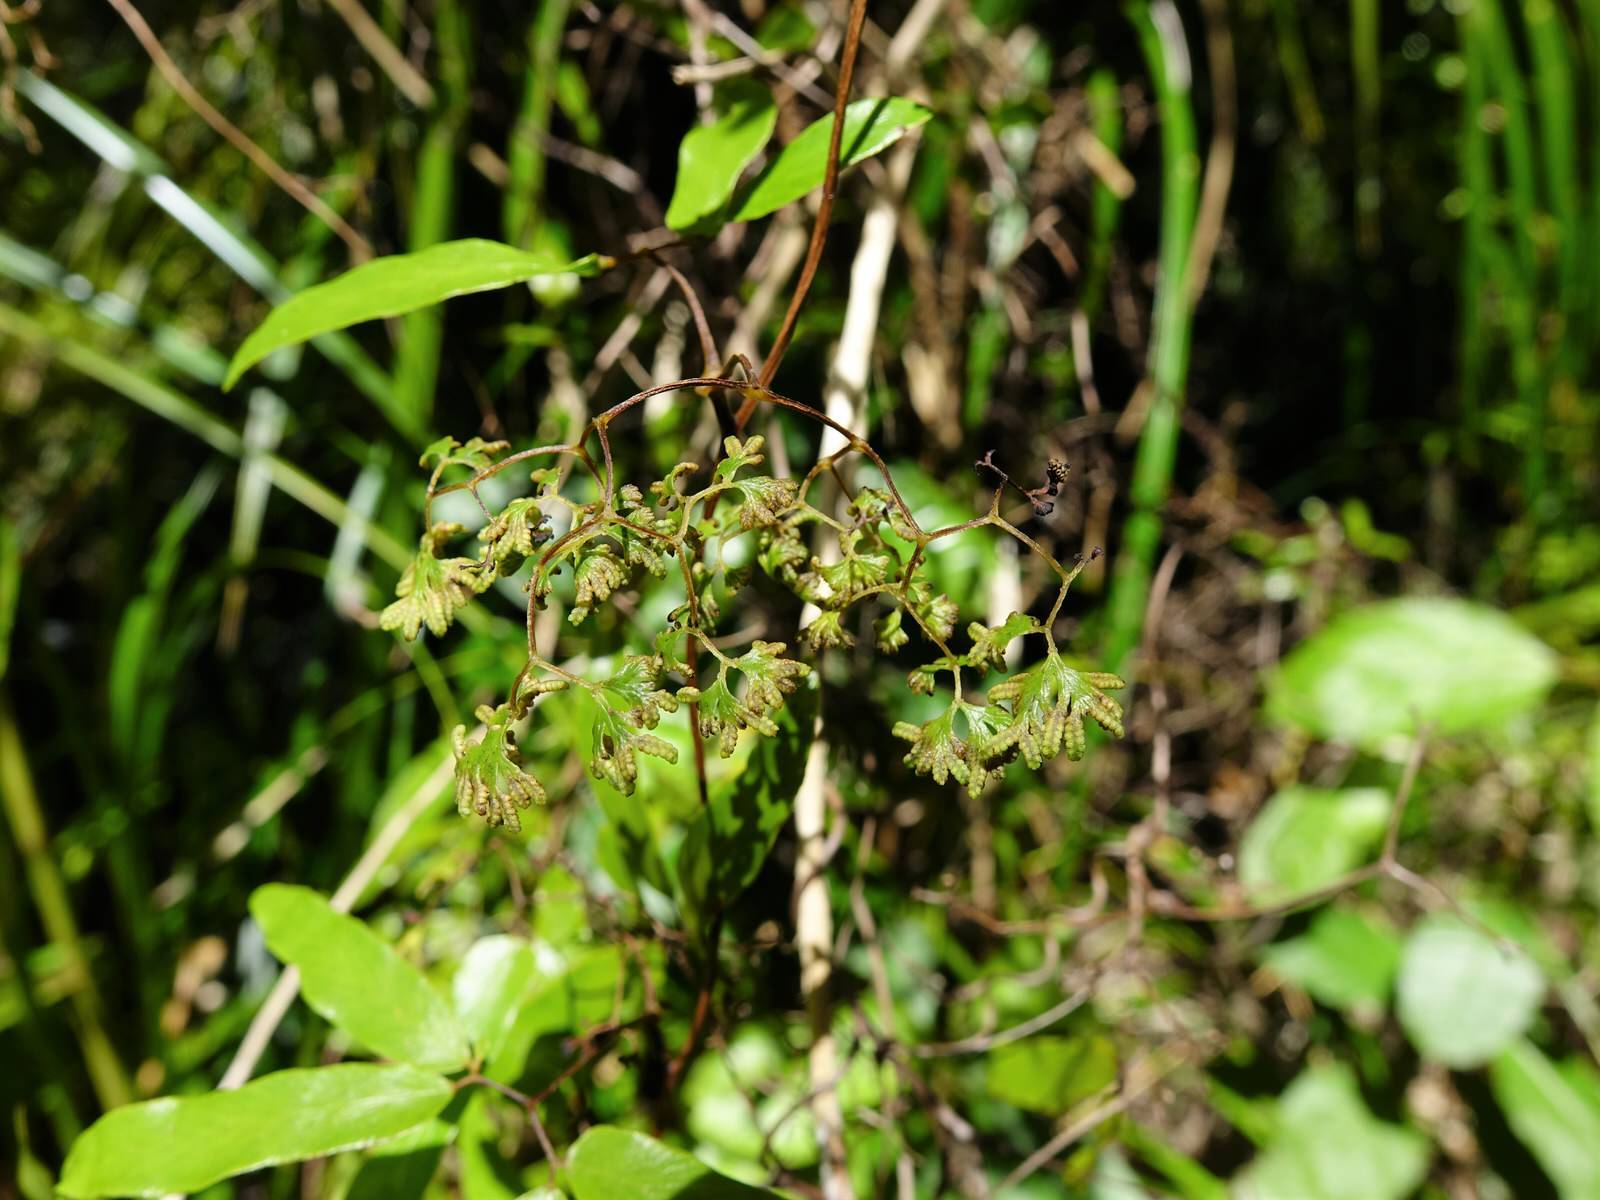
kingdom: Plantae
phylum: Tracheophyta
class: Polypodiopsida
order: Schizaeales
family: Lygodiaceae
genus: Lygodium
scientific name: Lygodium articulatum
